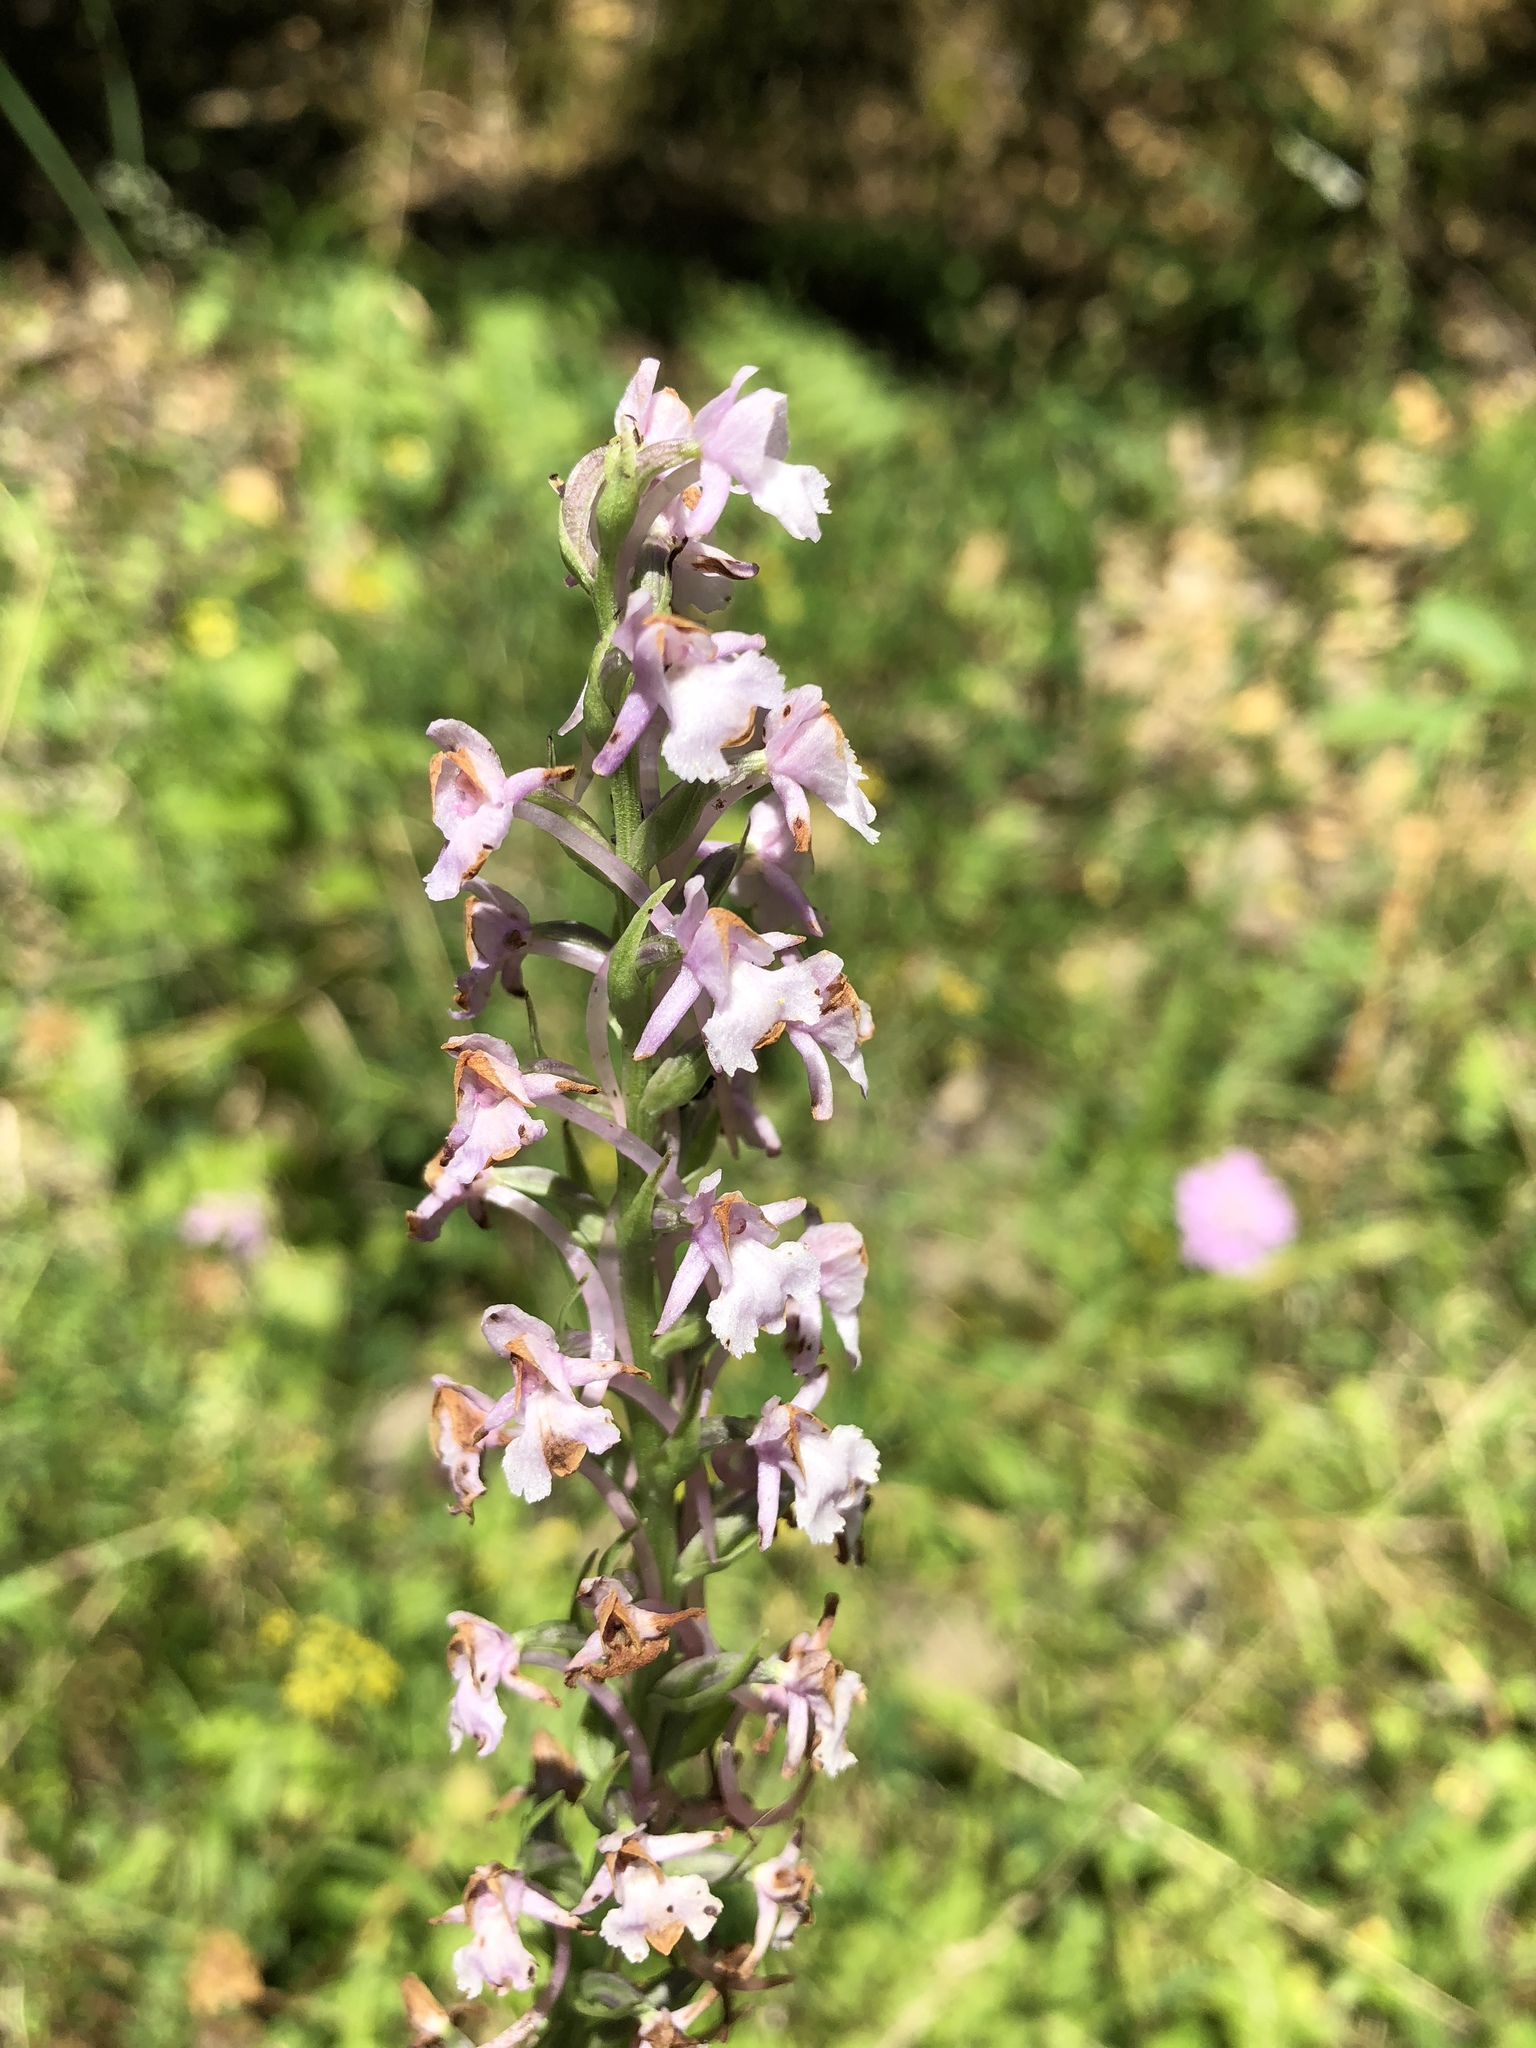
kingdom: Plantae
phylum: Tracheophyta
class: Liliopsida
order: Asparagales
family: Orchidaceae
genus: Gymnadenia
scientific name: Gymnadenia conopsea
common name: Fragrant orchid
